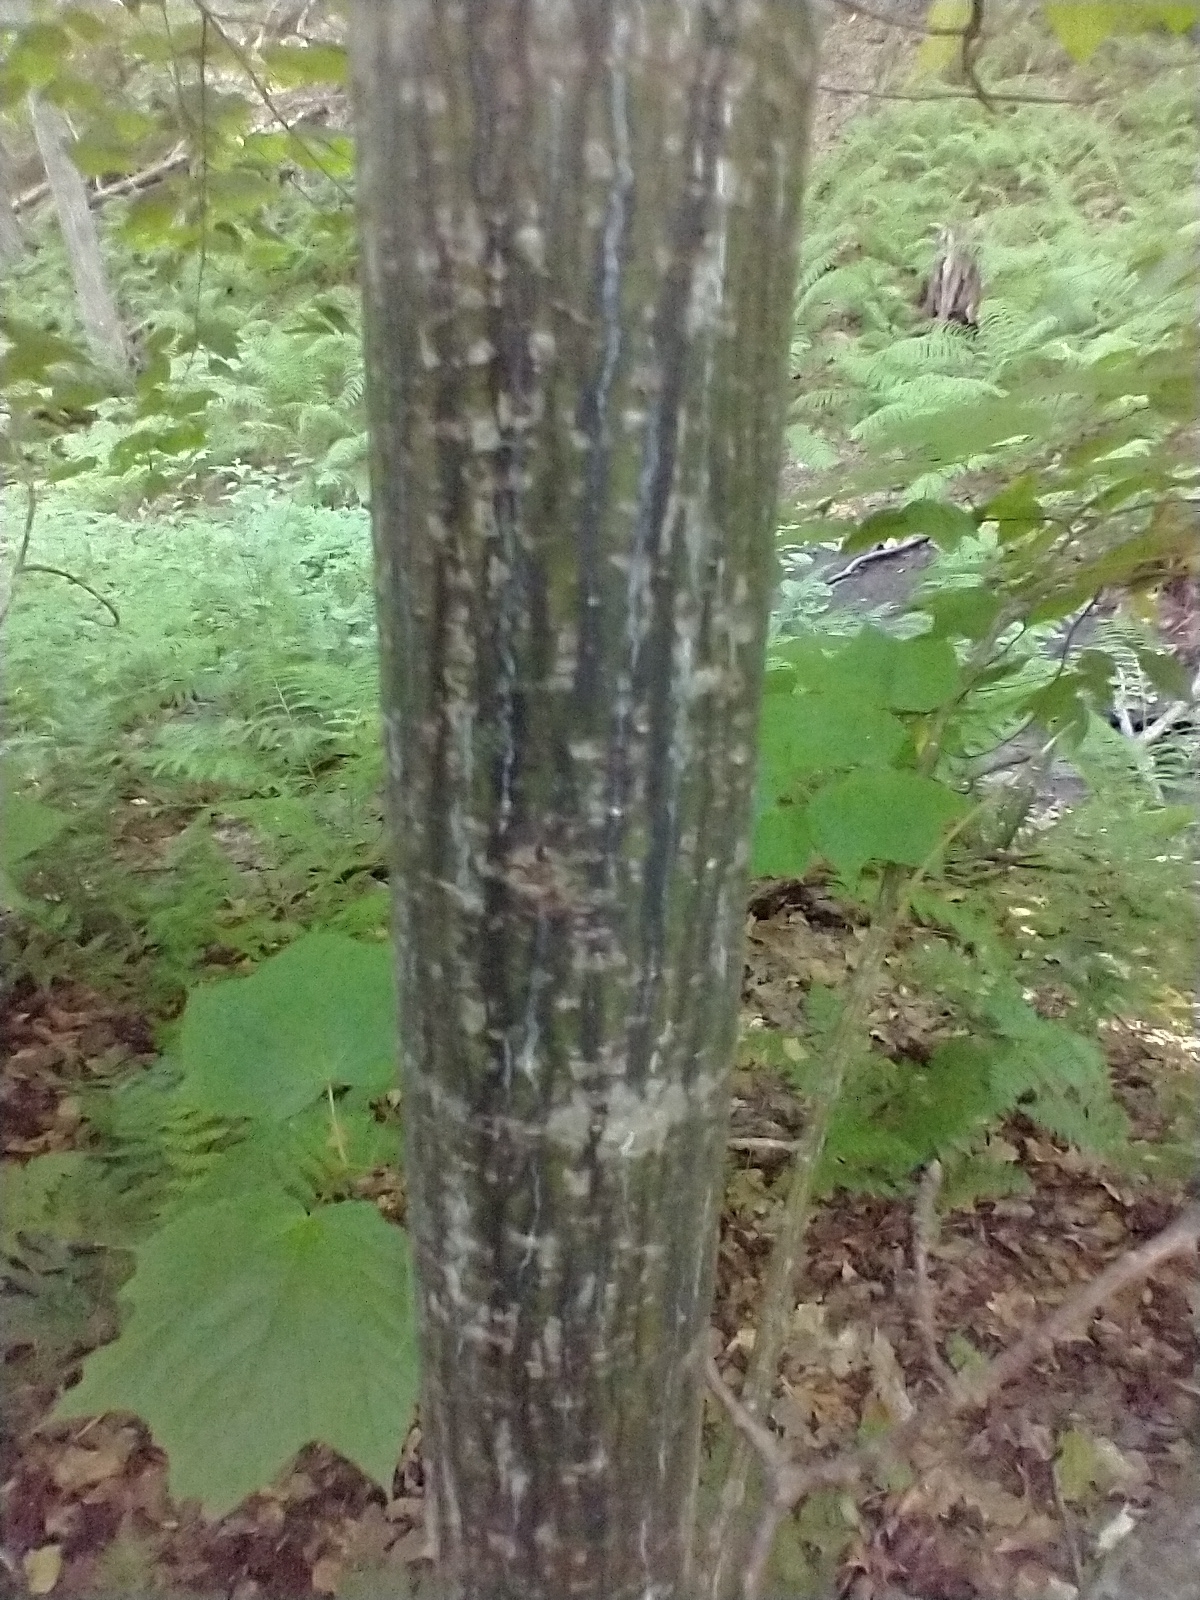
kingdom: Plantae
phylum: Tracheophyta
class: Magnoliopsida
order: Sapindales
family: Sapindaceae
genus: Acer
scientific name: Acer pensylvanicum
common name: Moosewood
